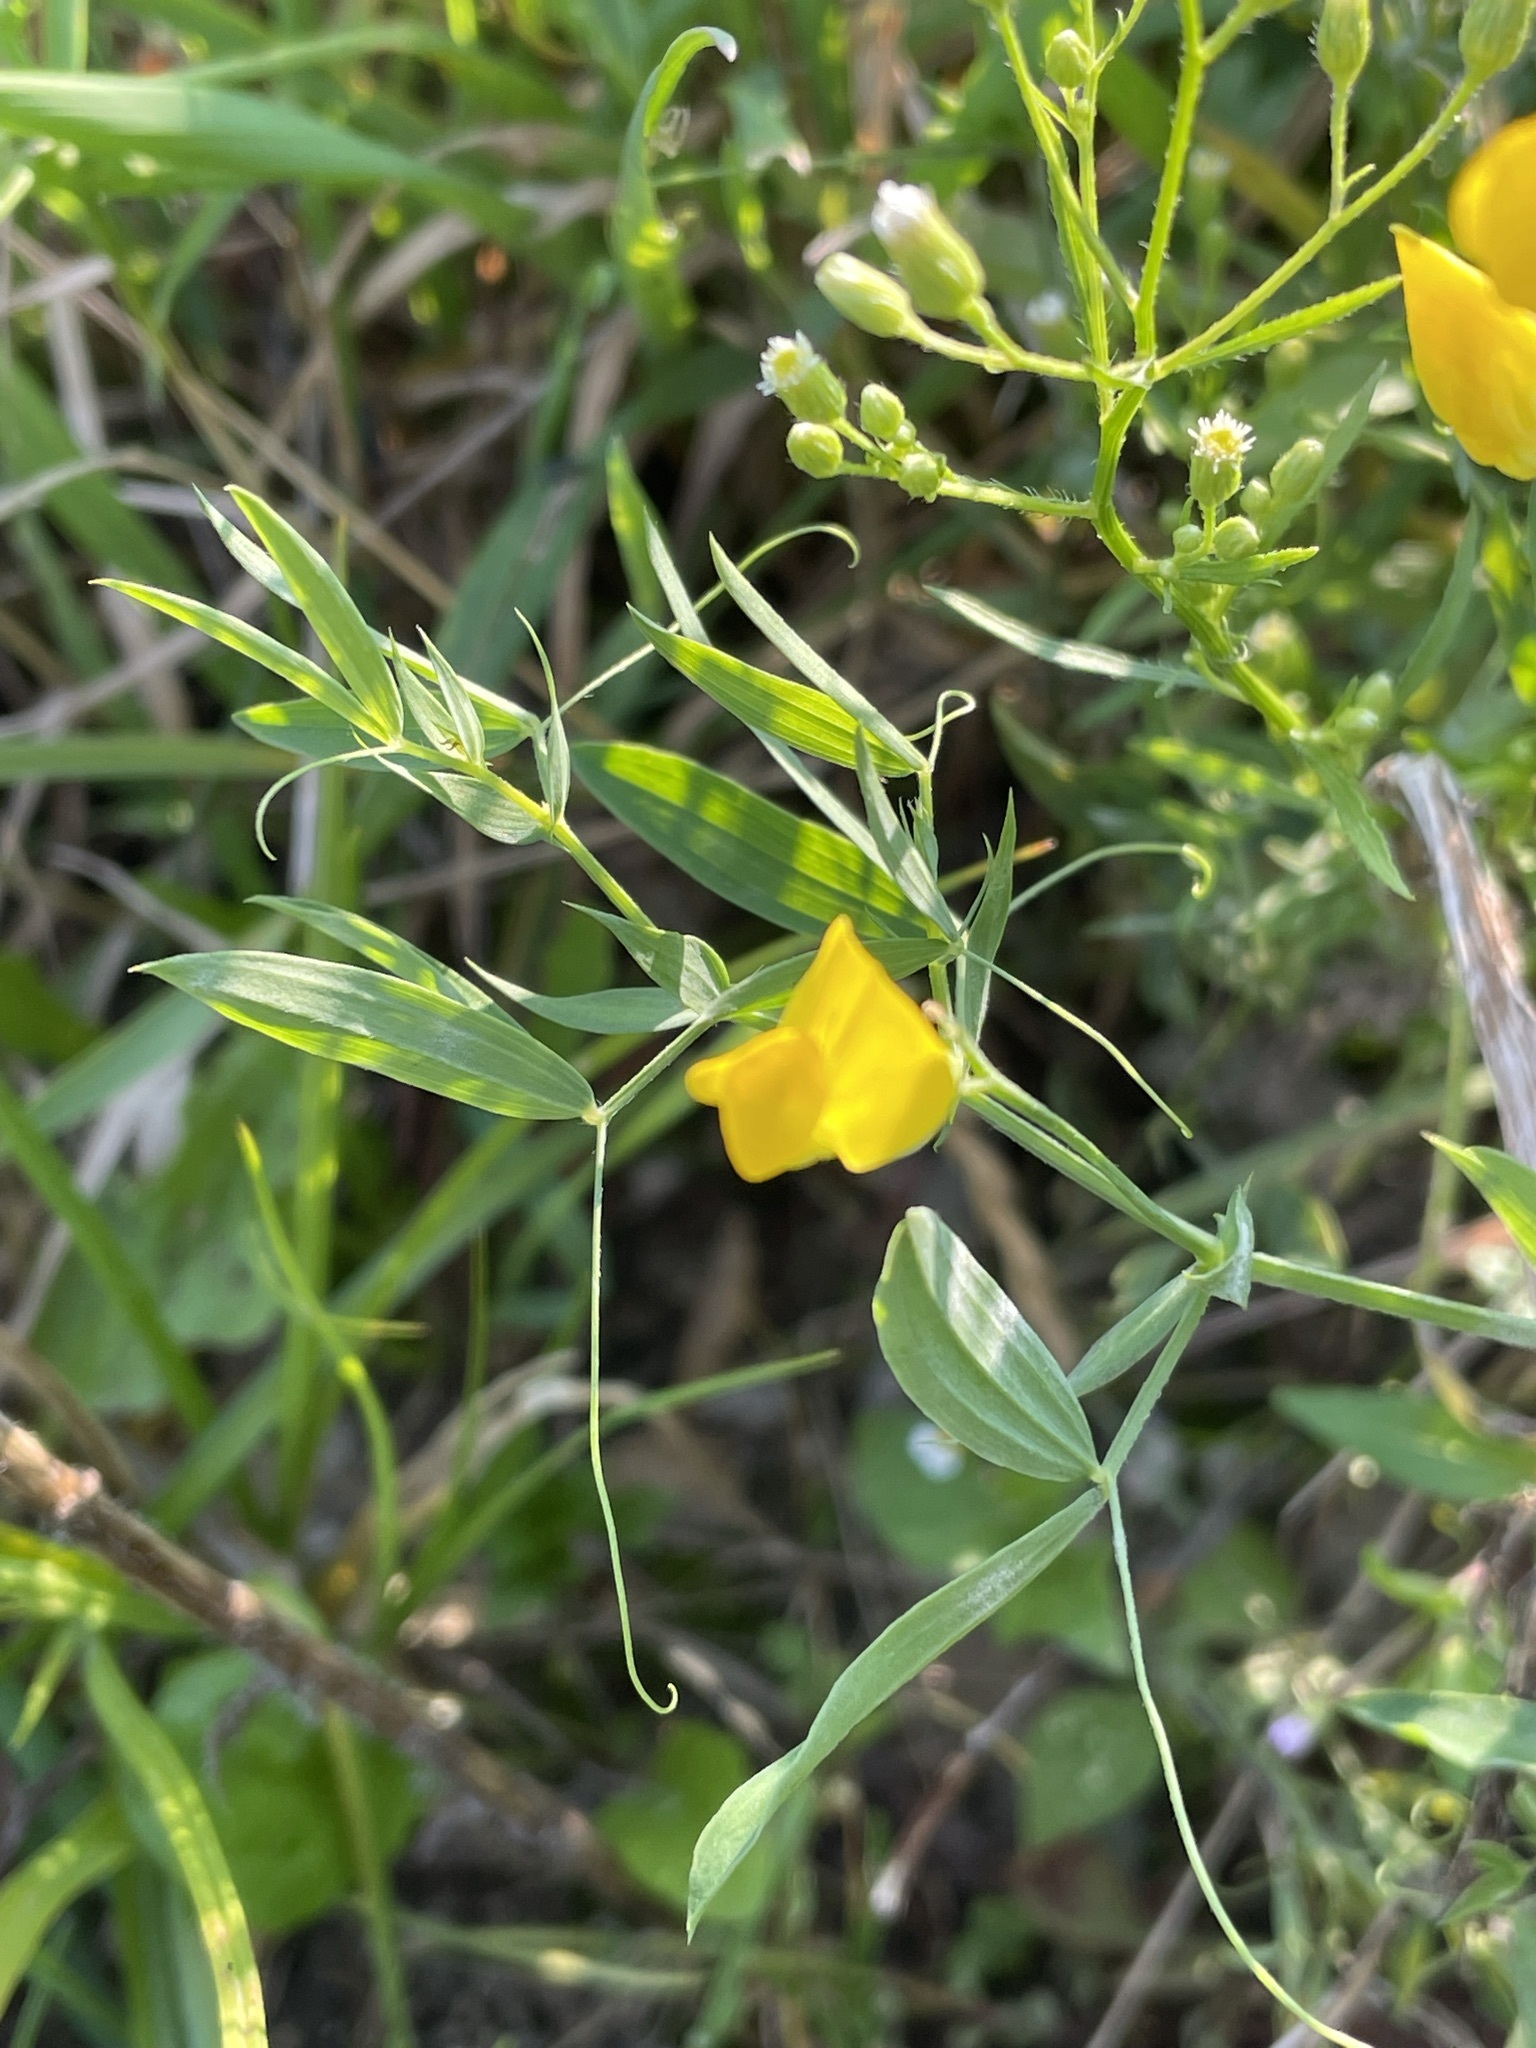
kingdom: Plantae
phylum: Tracheophyta
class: Magnoliopsida
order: Fabales
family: Fabaceae
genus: Lathyrus
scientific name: Lathyrus pratensis
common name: Meadow vetchling
